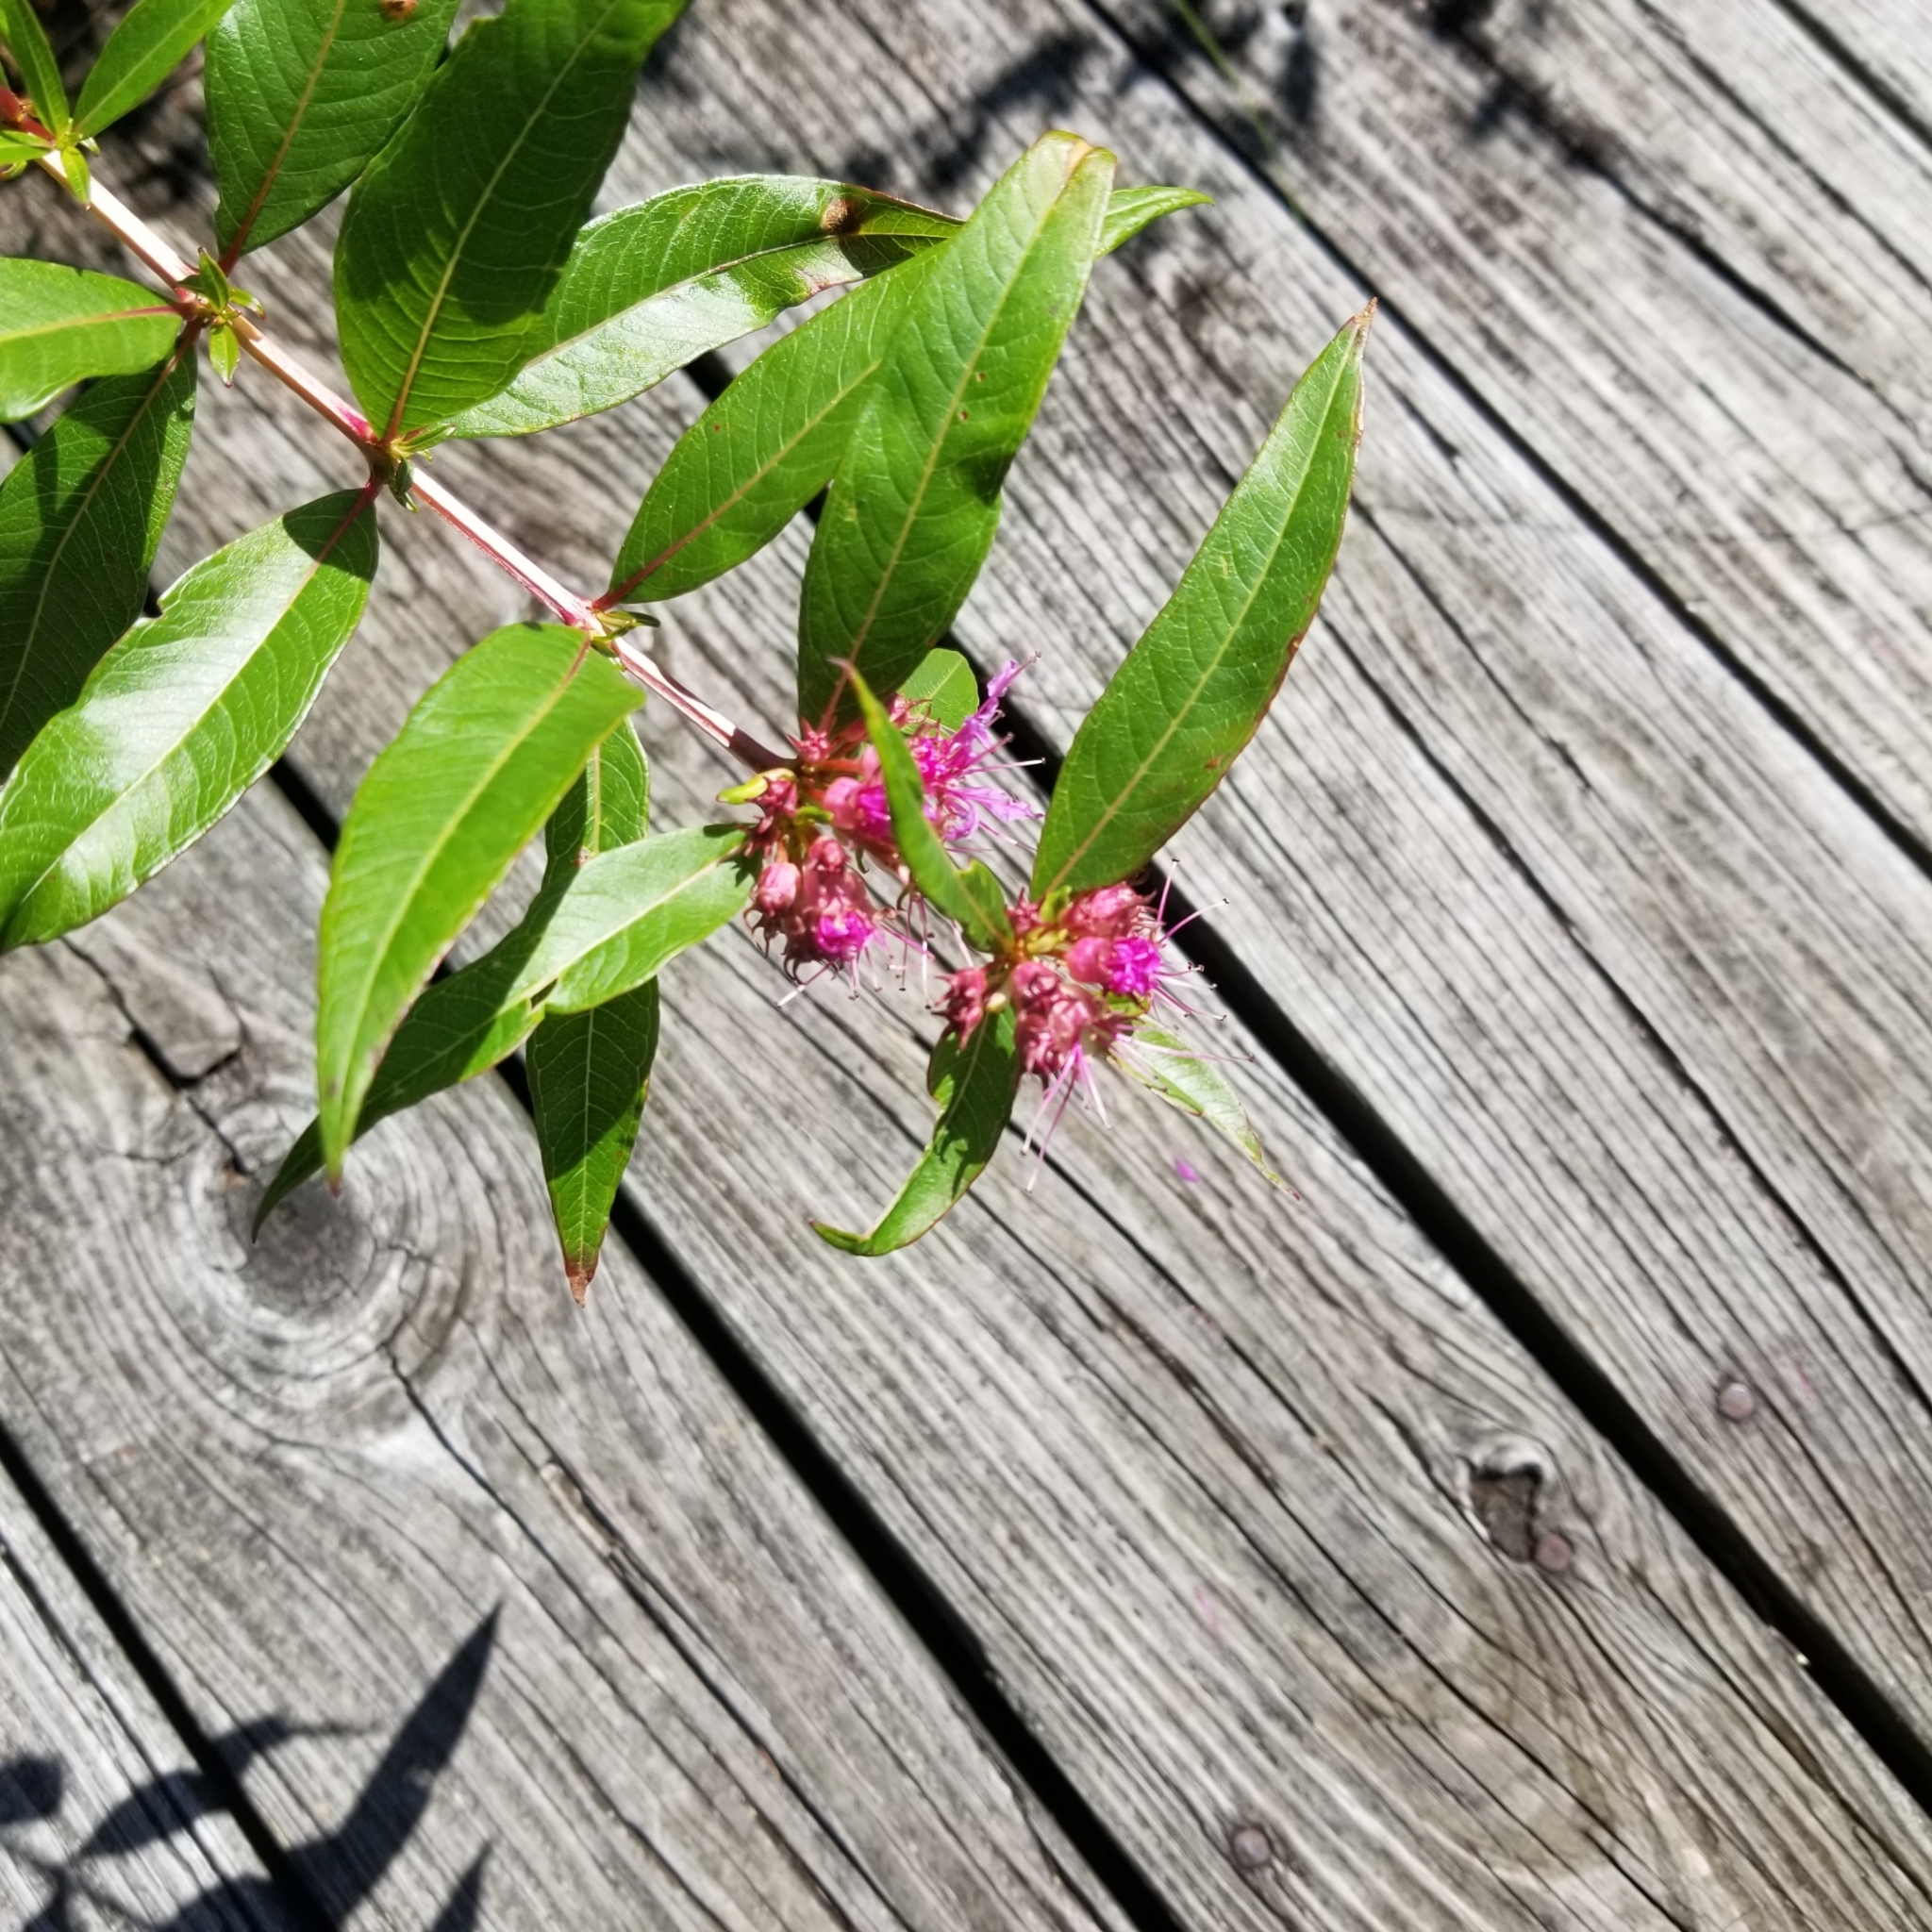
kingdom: Plantae
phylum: Tracheophyta
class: Magnoliopsida
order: Myrtales
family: Lythraceae
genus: Decodon
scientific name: Decodon verticillatus
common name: Hairy swamp loosestrife
